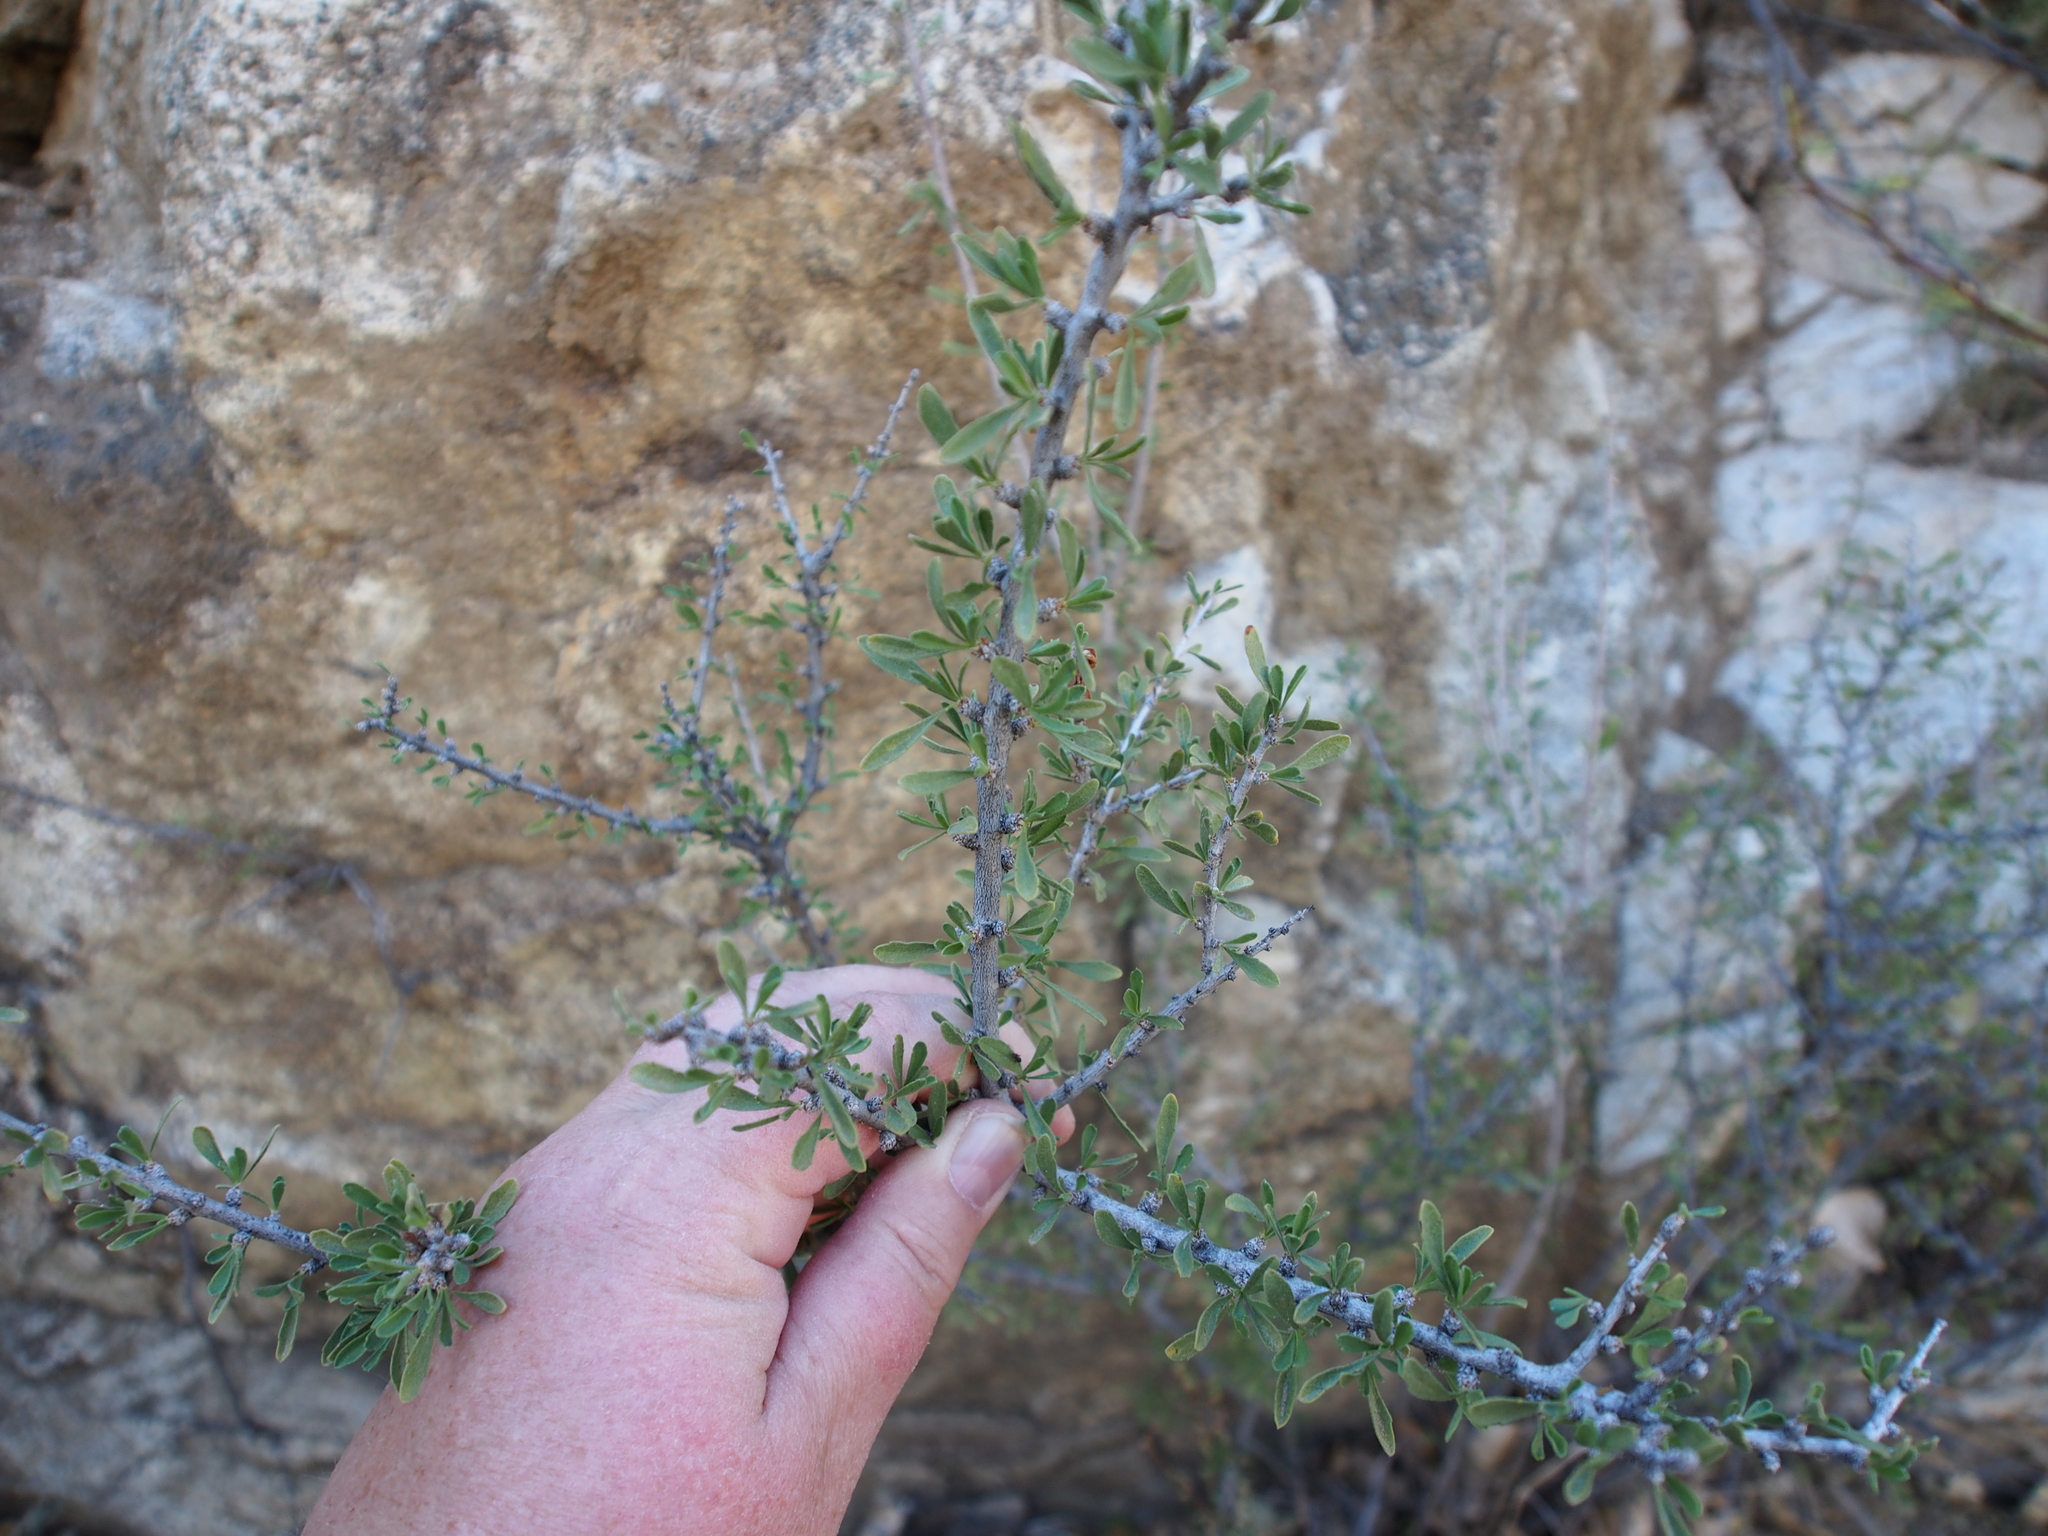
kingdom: Plantae
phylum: Tracheophyta
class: Magnoliopsida
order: Rosales
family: Rosaceae
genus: Prunus
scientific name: Prunus fasciculata
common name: Desert almond
